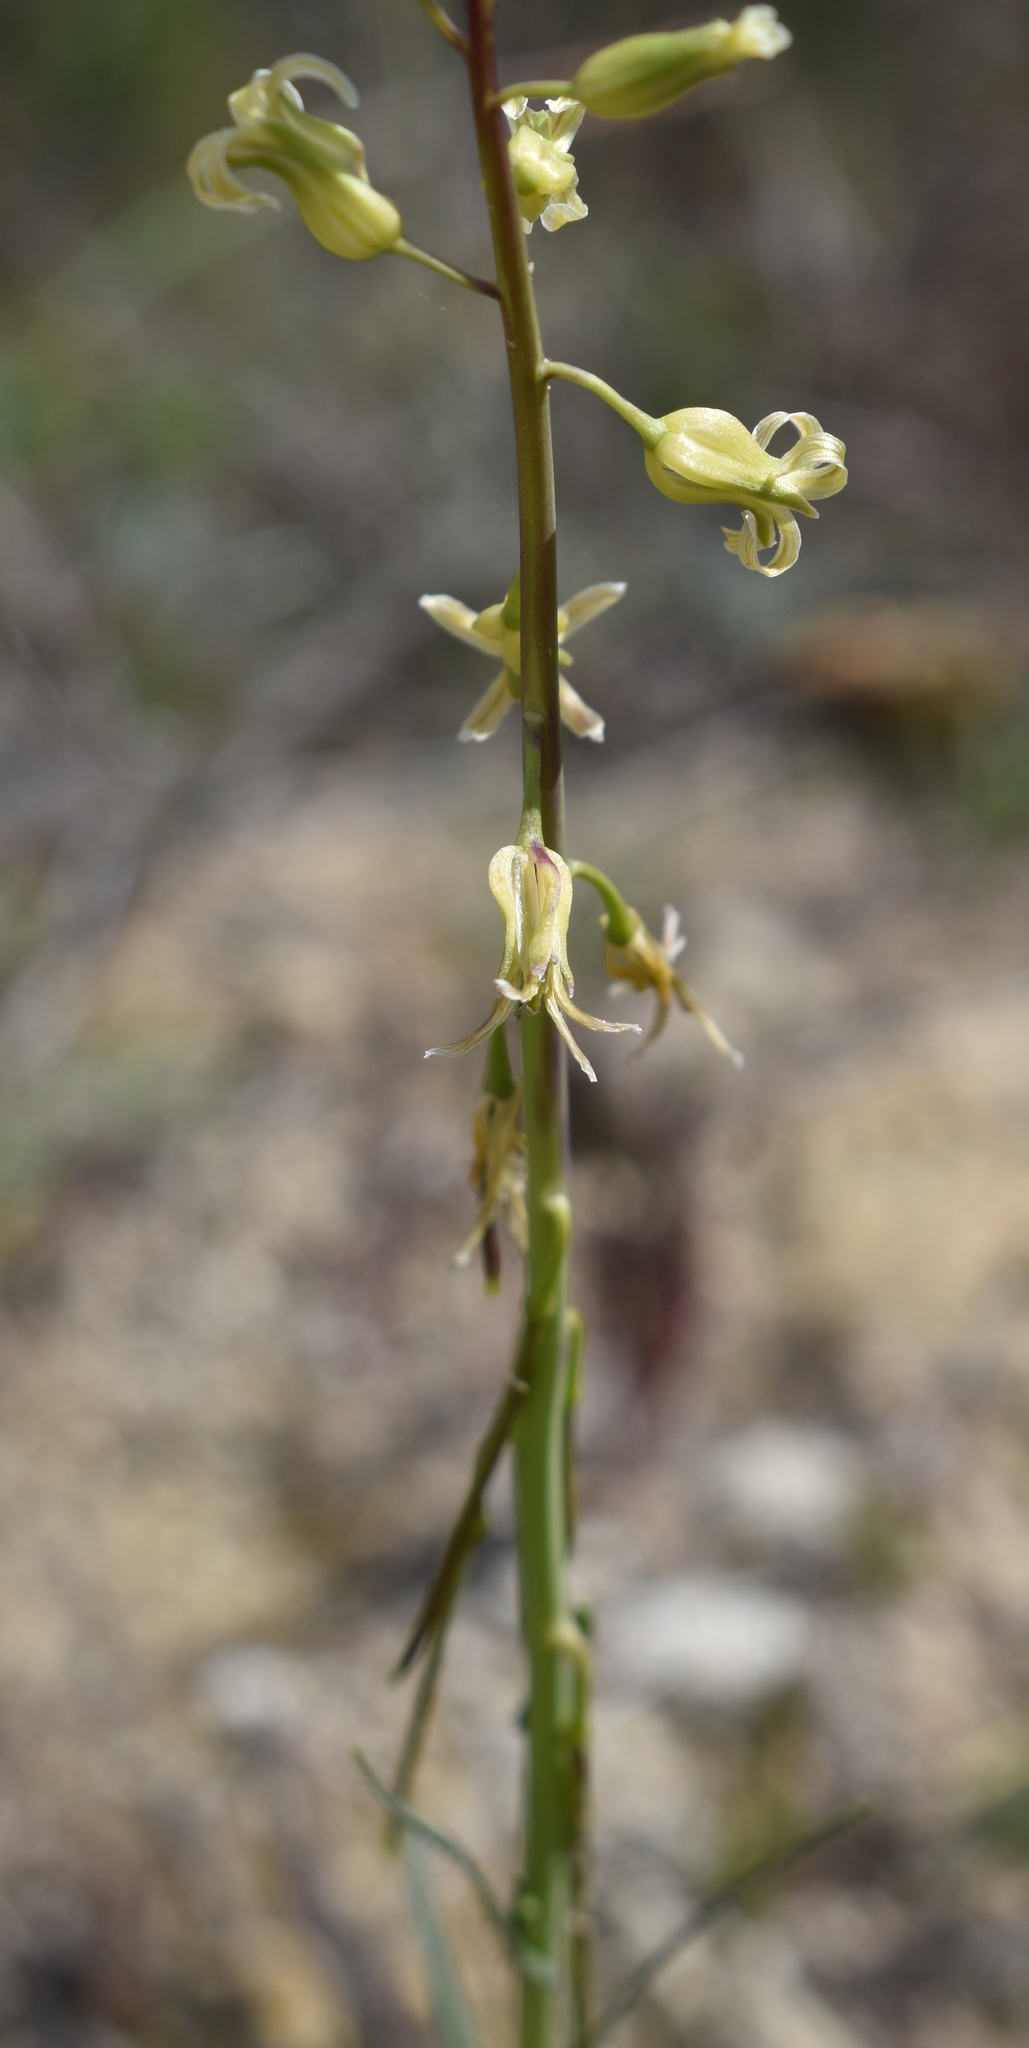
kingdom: Plantae
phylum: Tracheophyta
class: Magnoliopsida
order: Brassicales
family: Brassicaceae
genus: Streptanthus
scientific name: Streptanthus heterophyllus
